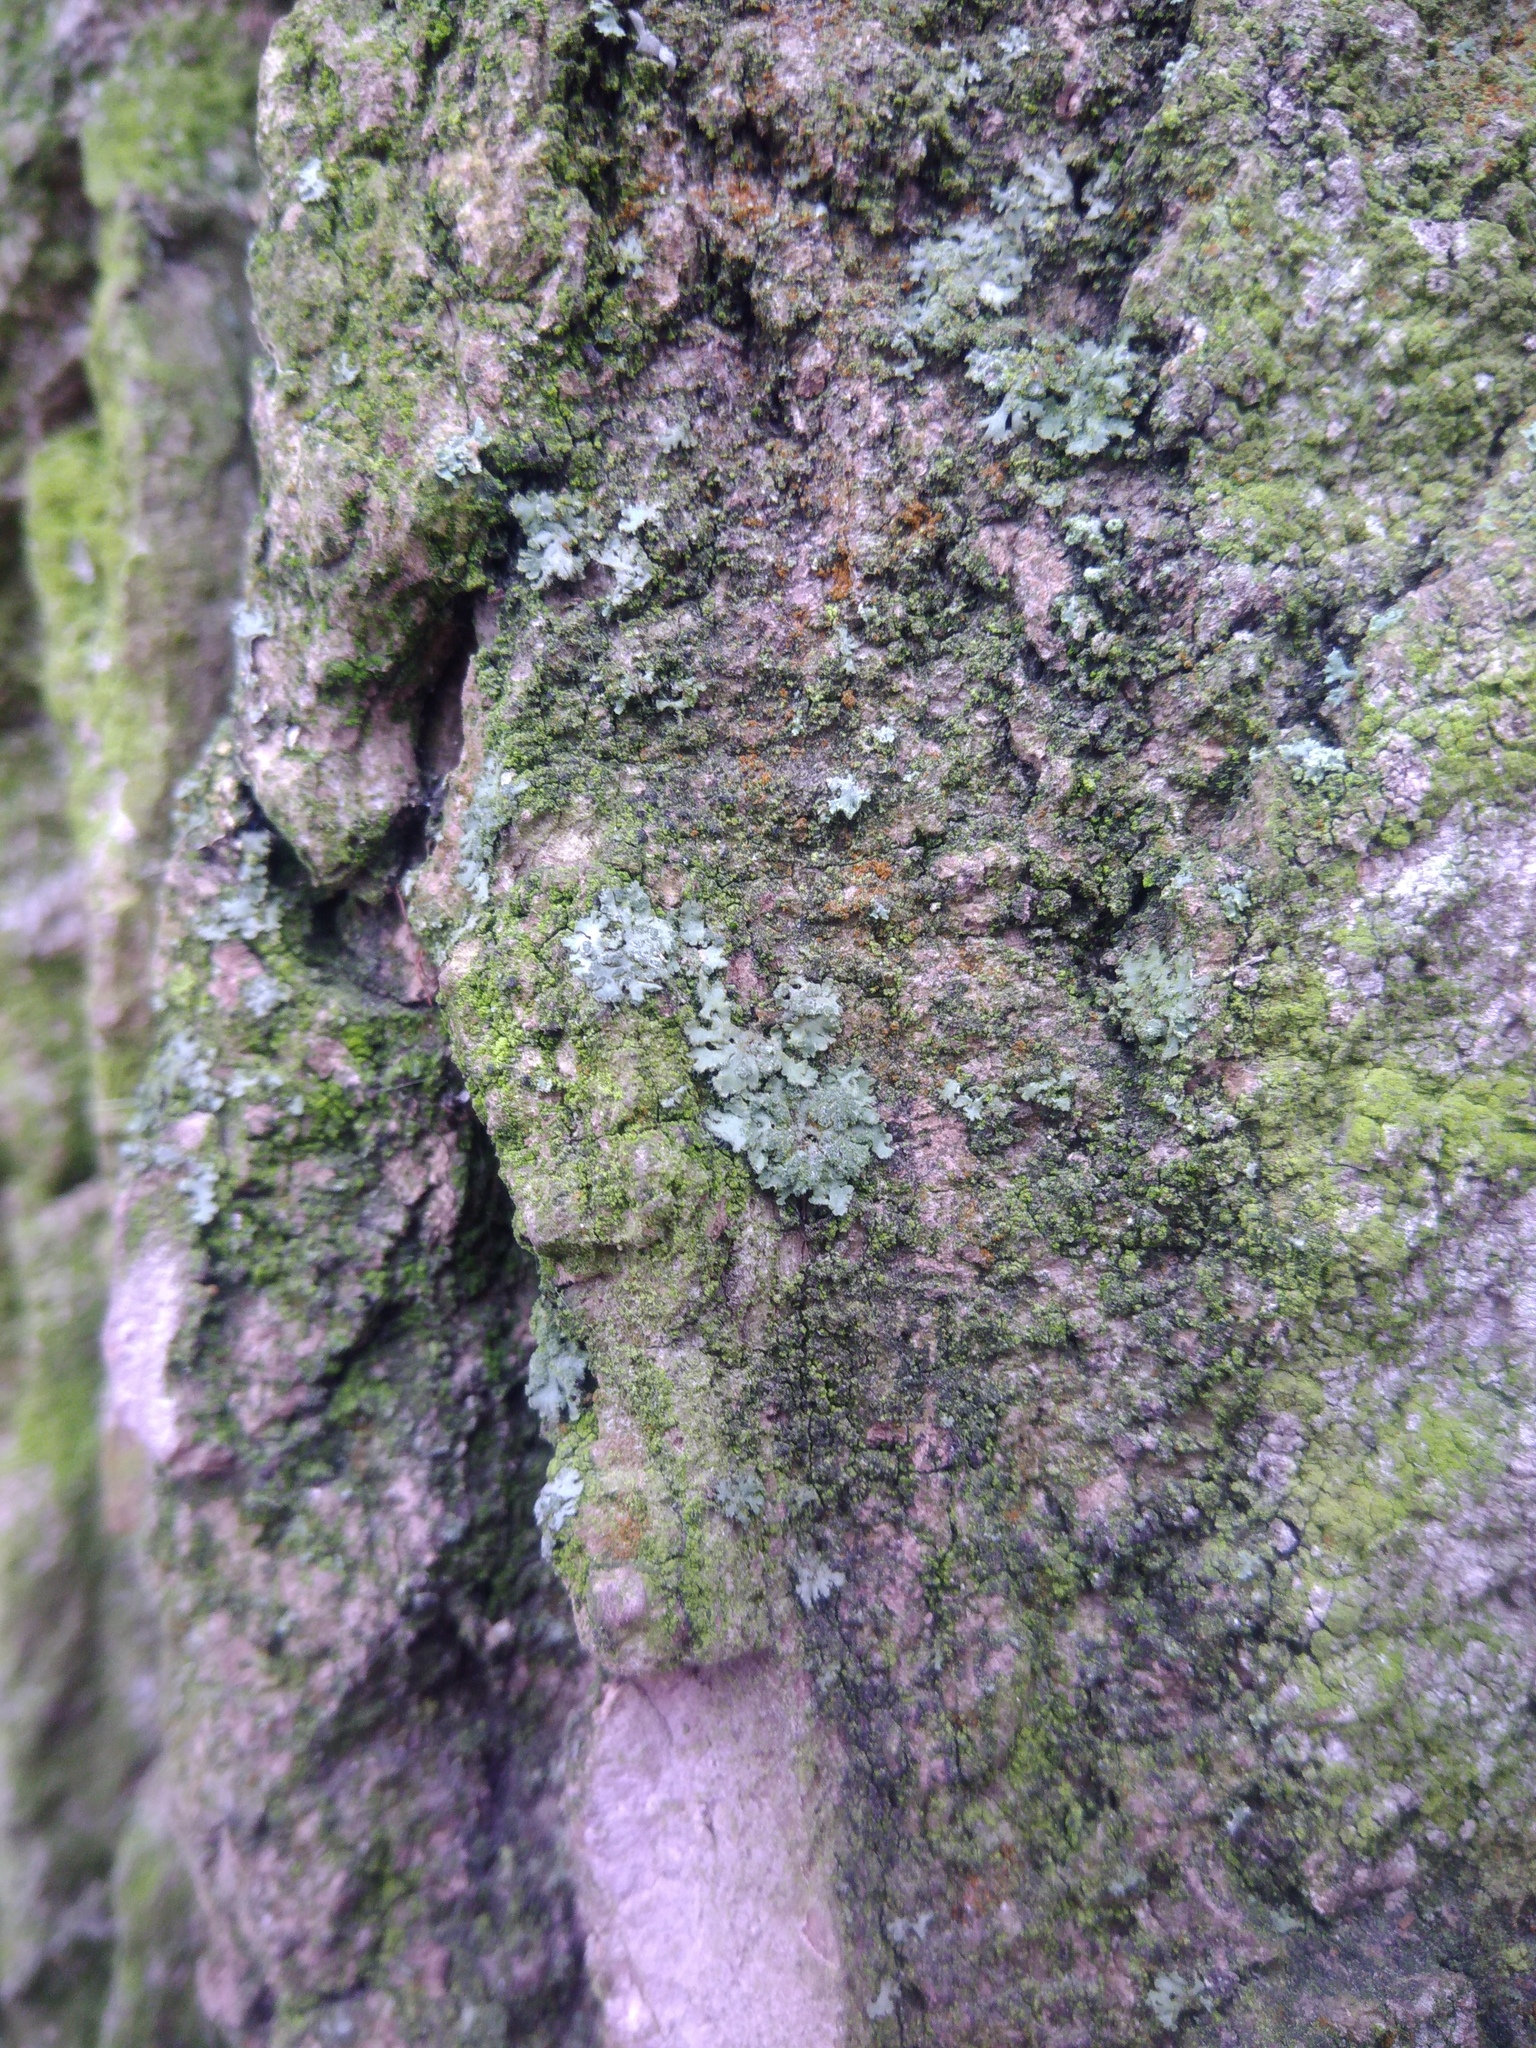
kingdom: Fungi
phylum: Ascomycota
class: Lecanoromycetes
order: Caliciales
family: Physciaceae
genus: Phaeophyscia
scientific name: Phaeophyscia orbicularis
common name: Mealy shadow lichen
